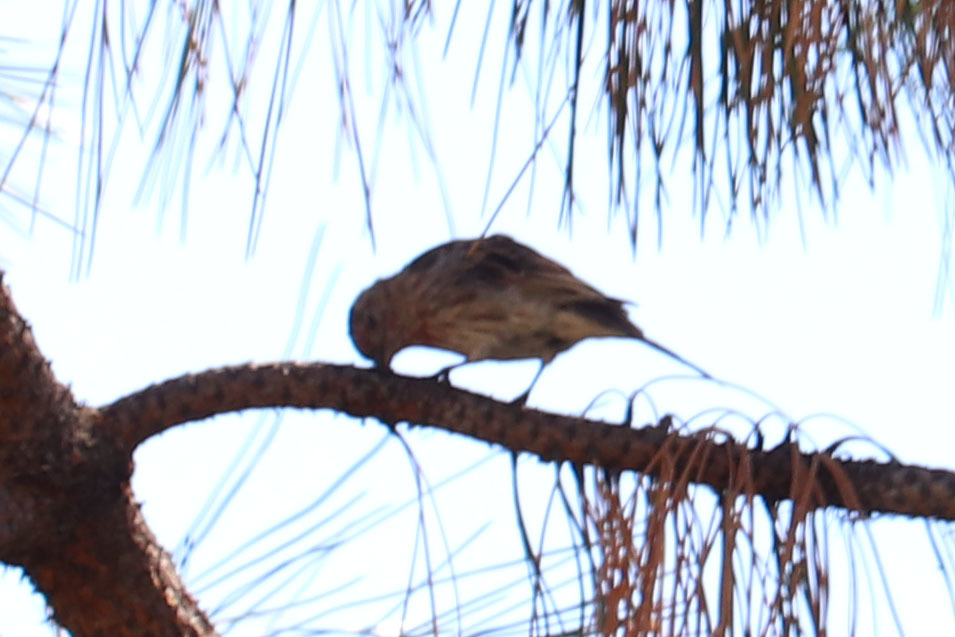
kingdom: Animalia
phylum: Chordata
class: Aves
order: Passeriformes
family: Fringillidae
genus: Haemorhous
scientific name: Haemorhous mexicanus
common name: House finch
